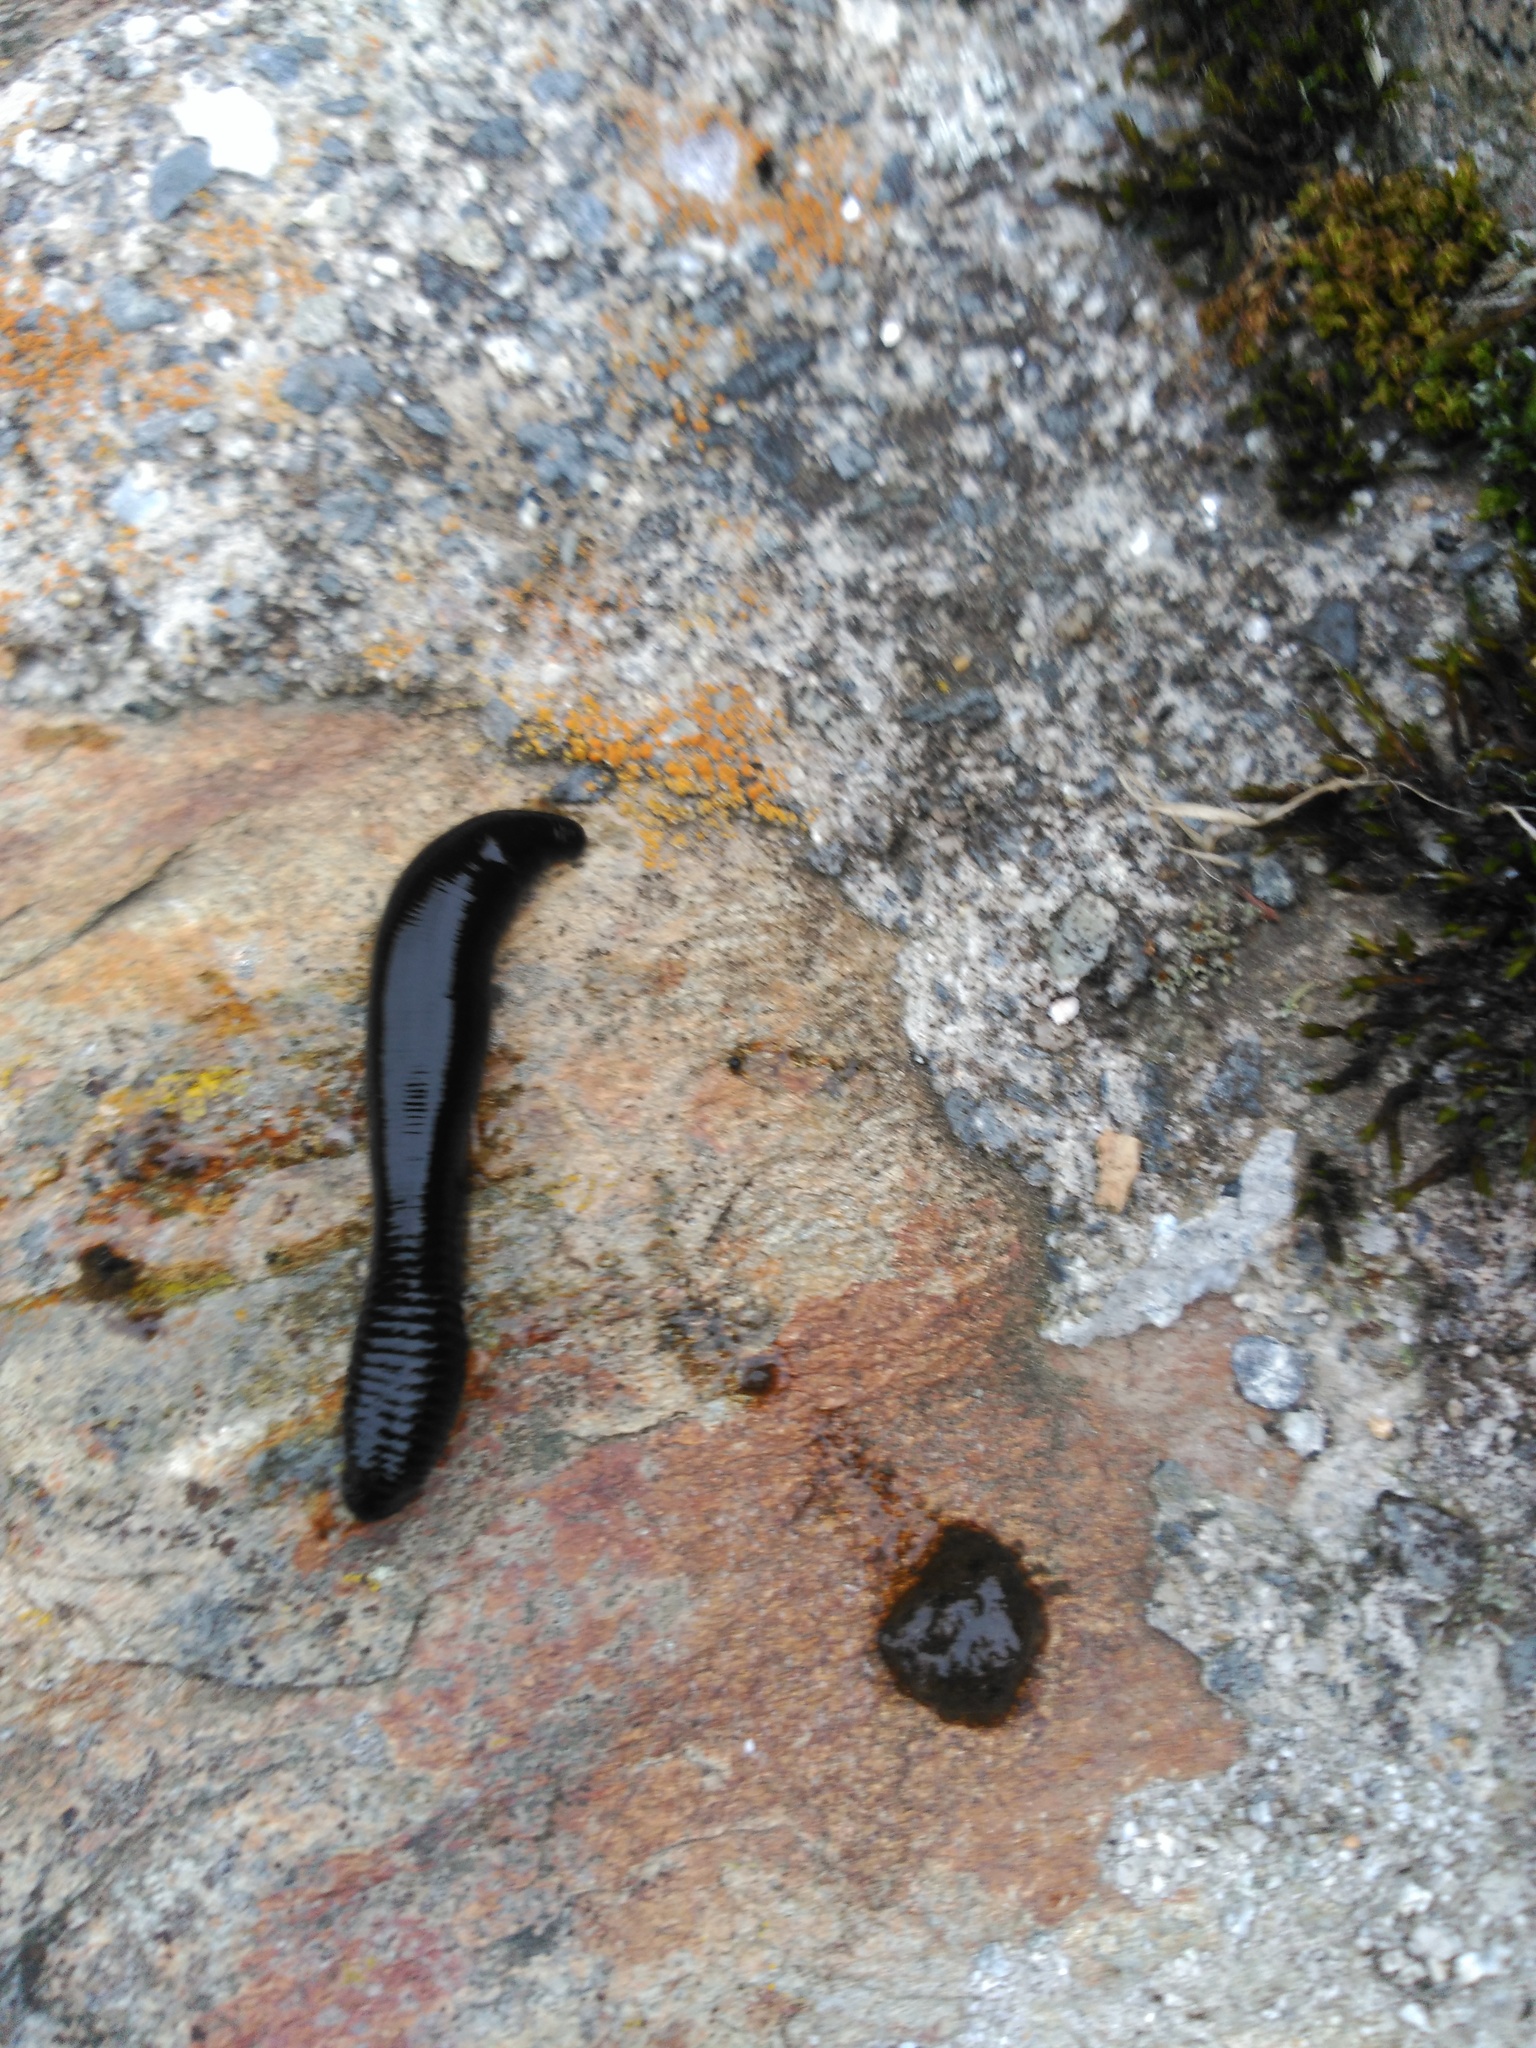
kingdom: Animalia
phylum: Annelida
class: Clitellata
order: Arhynchobdellida
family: Haemopidae
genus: Haemopis
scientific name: Haemopis sanguisuga
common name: Horse leech
